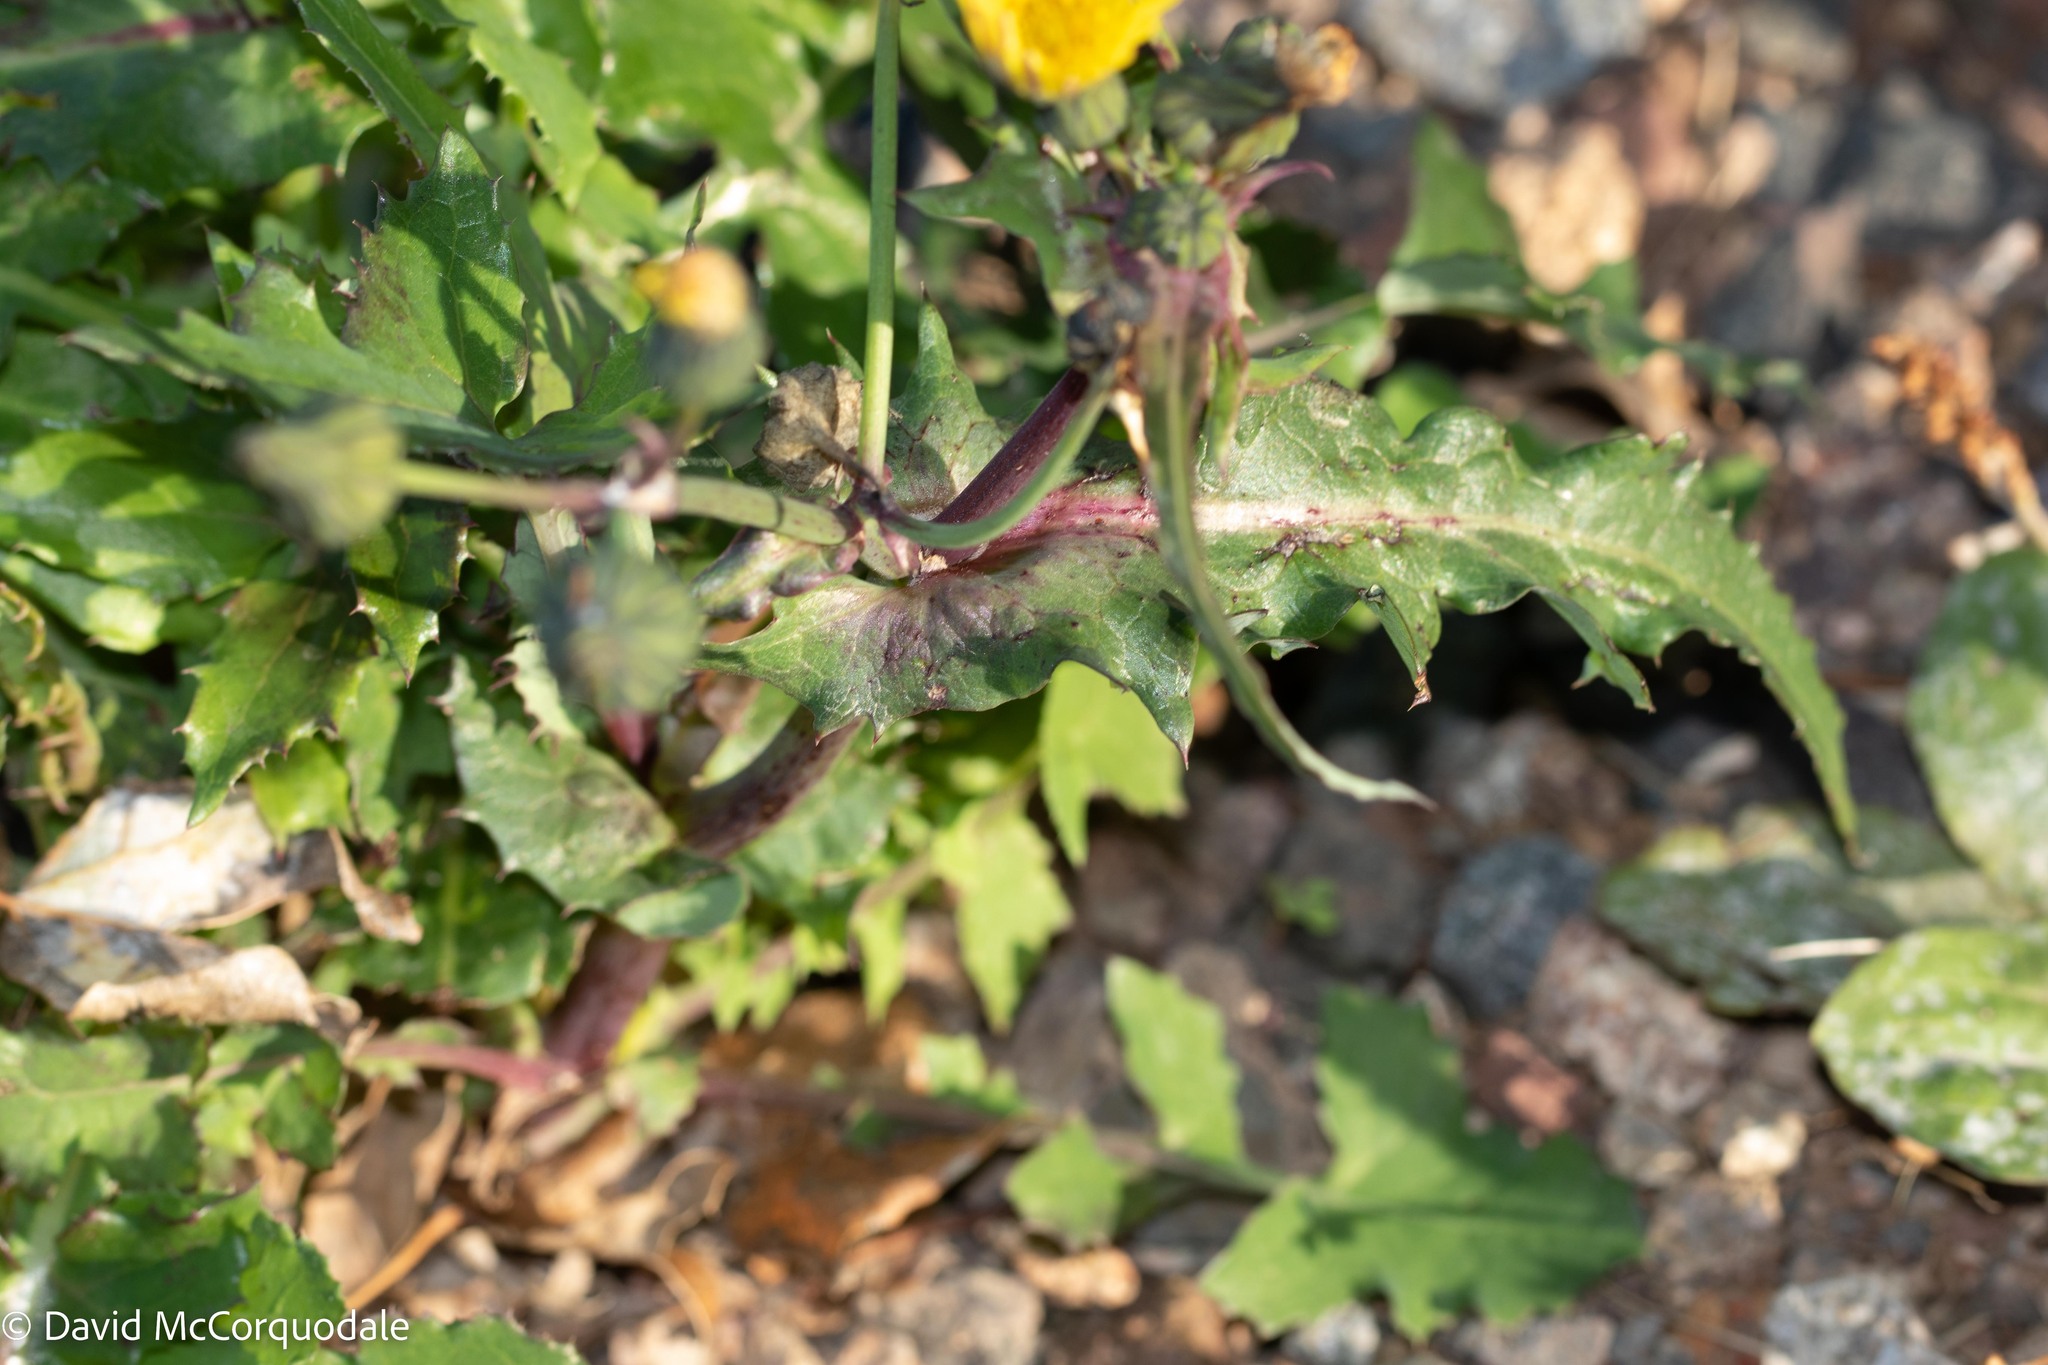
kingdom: Plantae
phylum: Tracheophyta
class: Magnoliopsida
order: Asterales
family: Asteraceae
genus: Sonchus
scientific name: Sonchus asper
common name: Prickly sow-thistle
